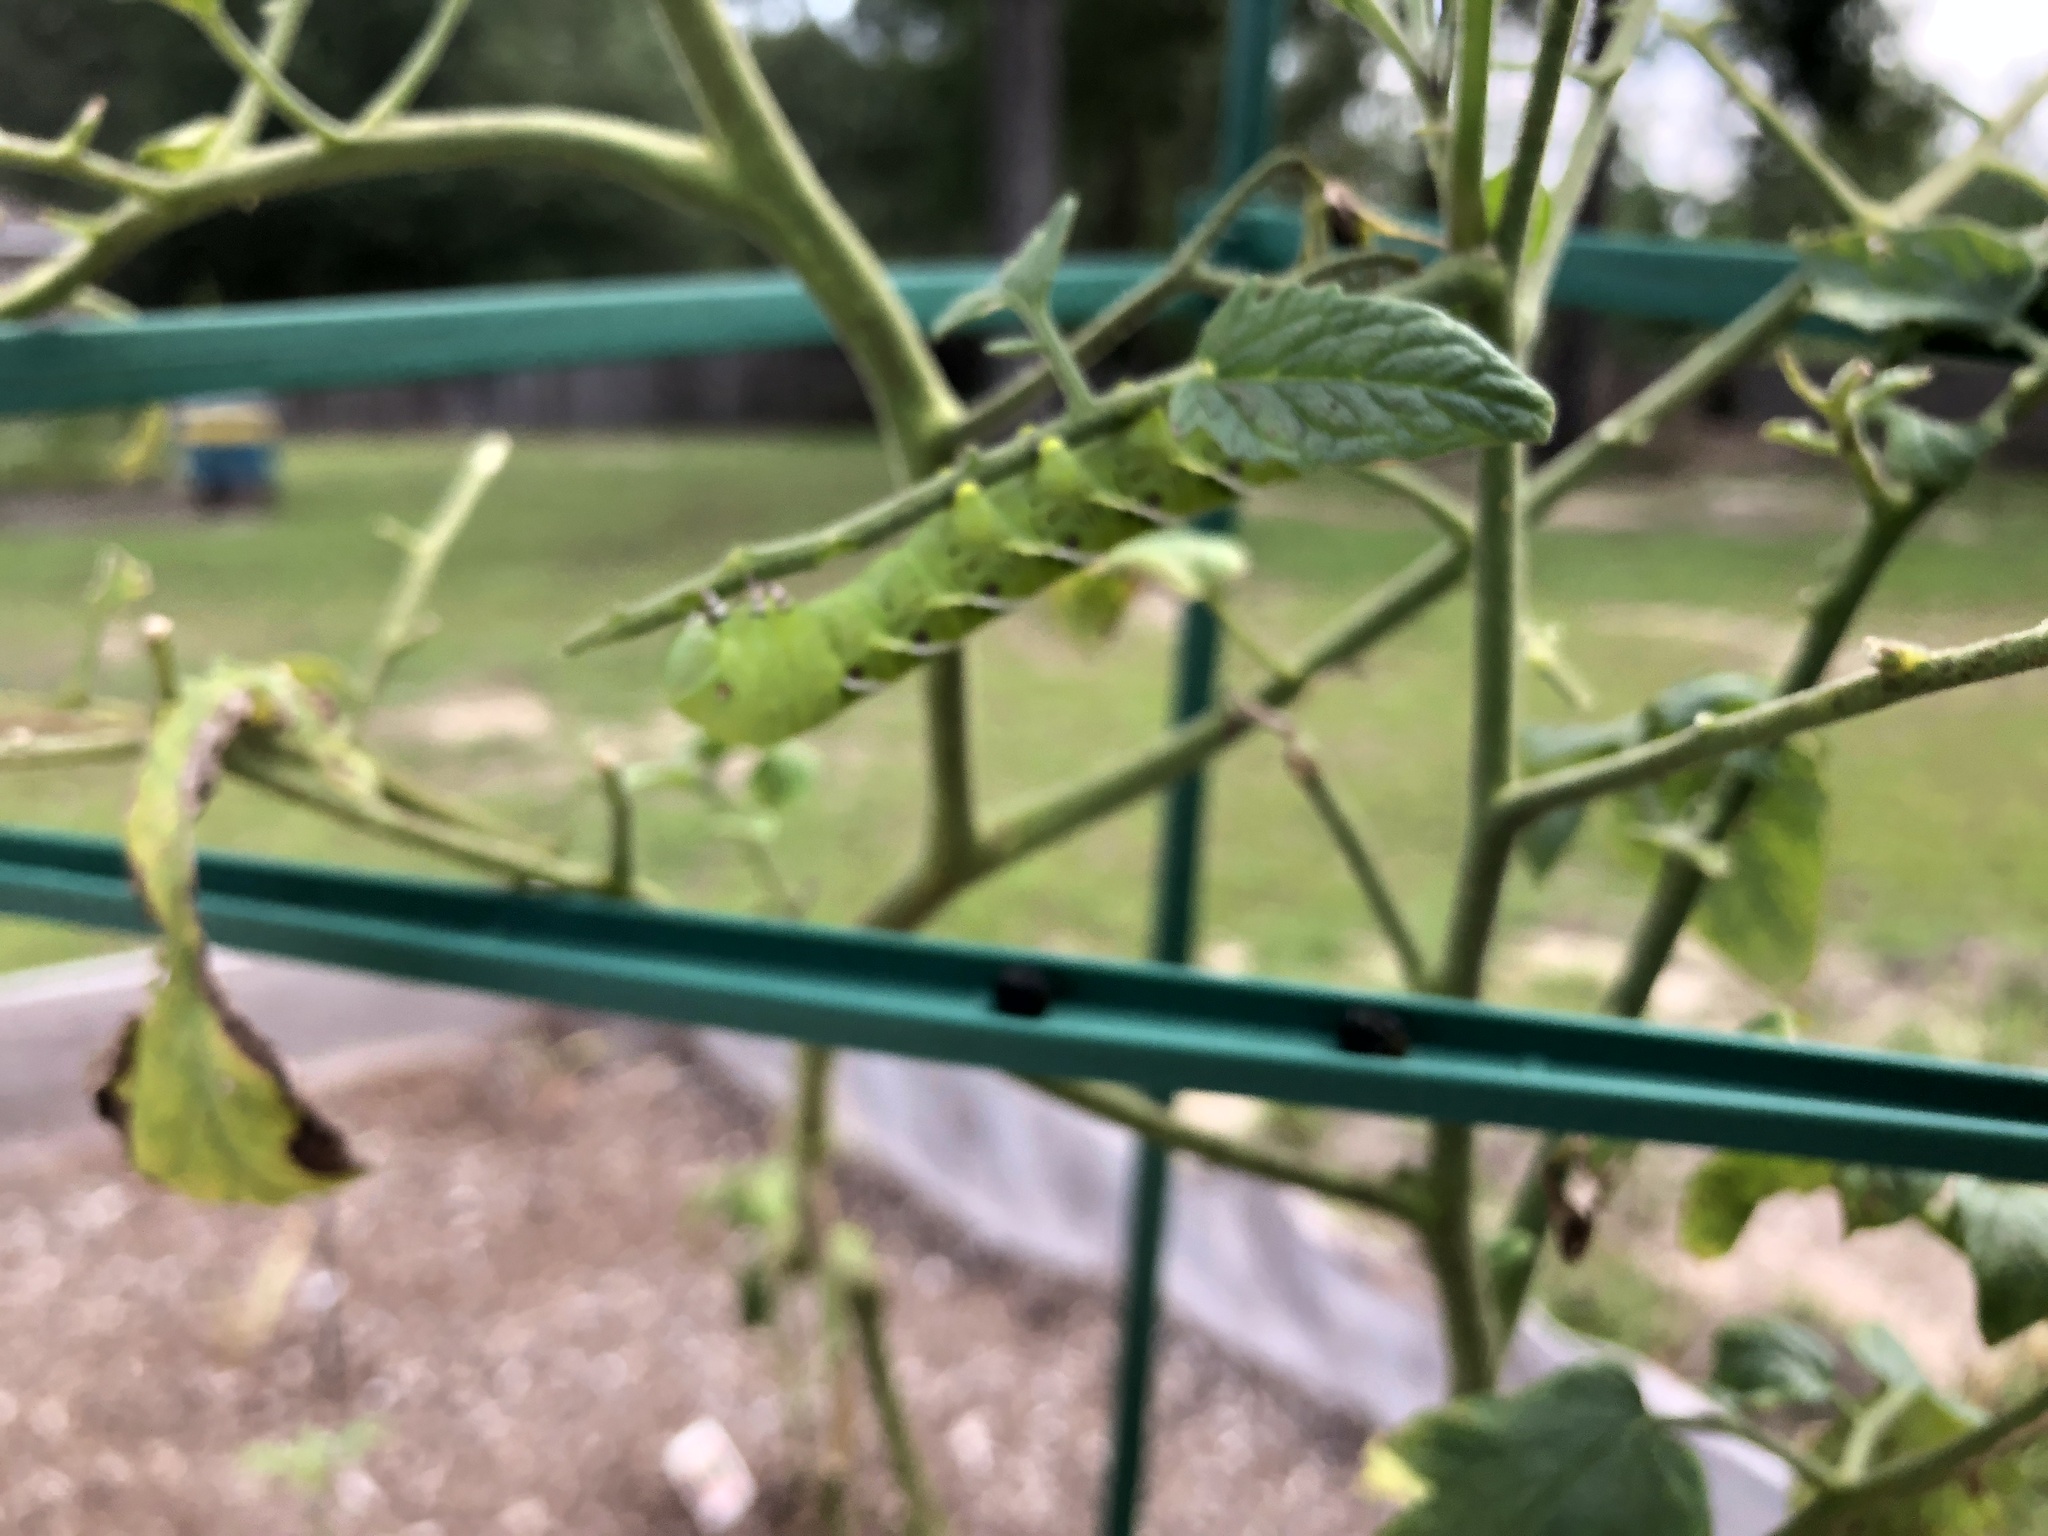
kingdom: Animalia
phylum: Arthropoda
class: Insecta
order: Lepidoptera
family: Sphingidae
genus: Manduca
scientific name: Manduca sexta
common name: Carolina sphinx
